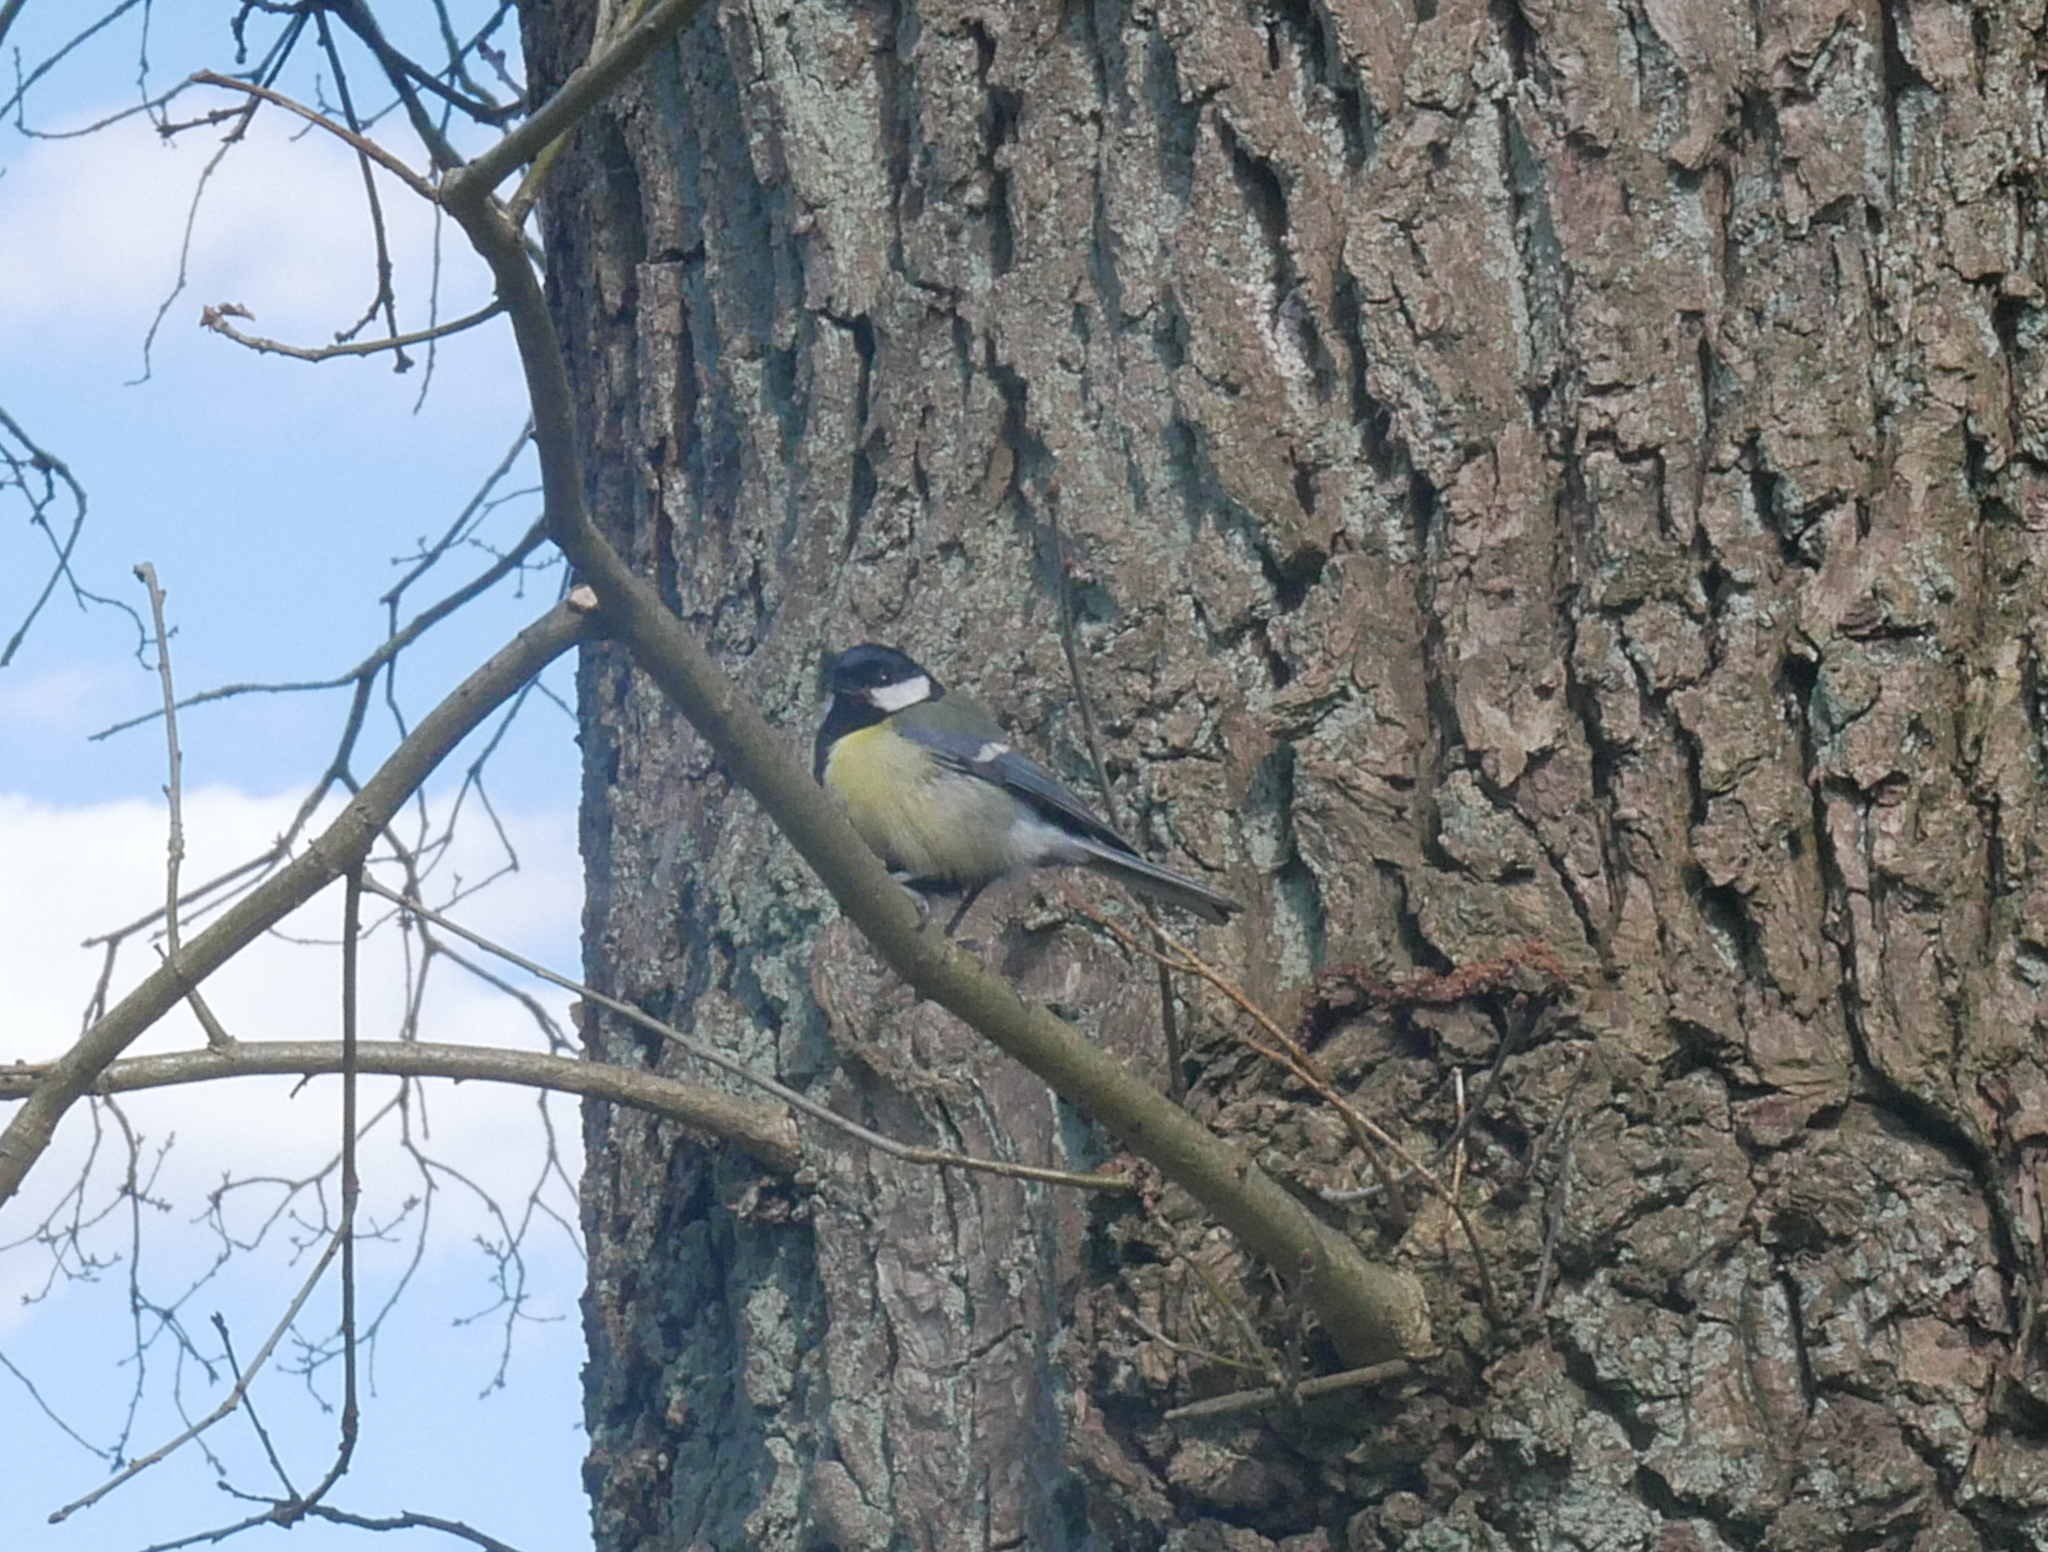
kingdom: Animalia
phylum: Chordata
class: Aves
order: Passeriformes
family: Paridae
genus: Parus
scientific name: Parus major
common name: Great tit
